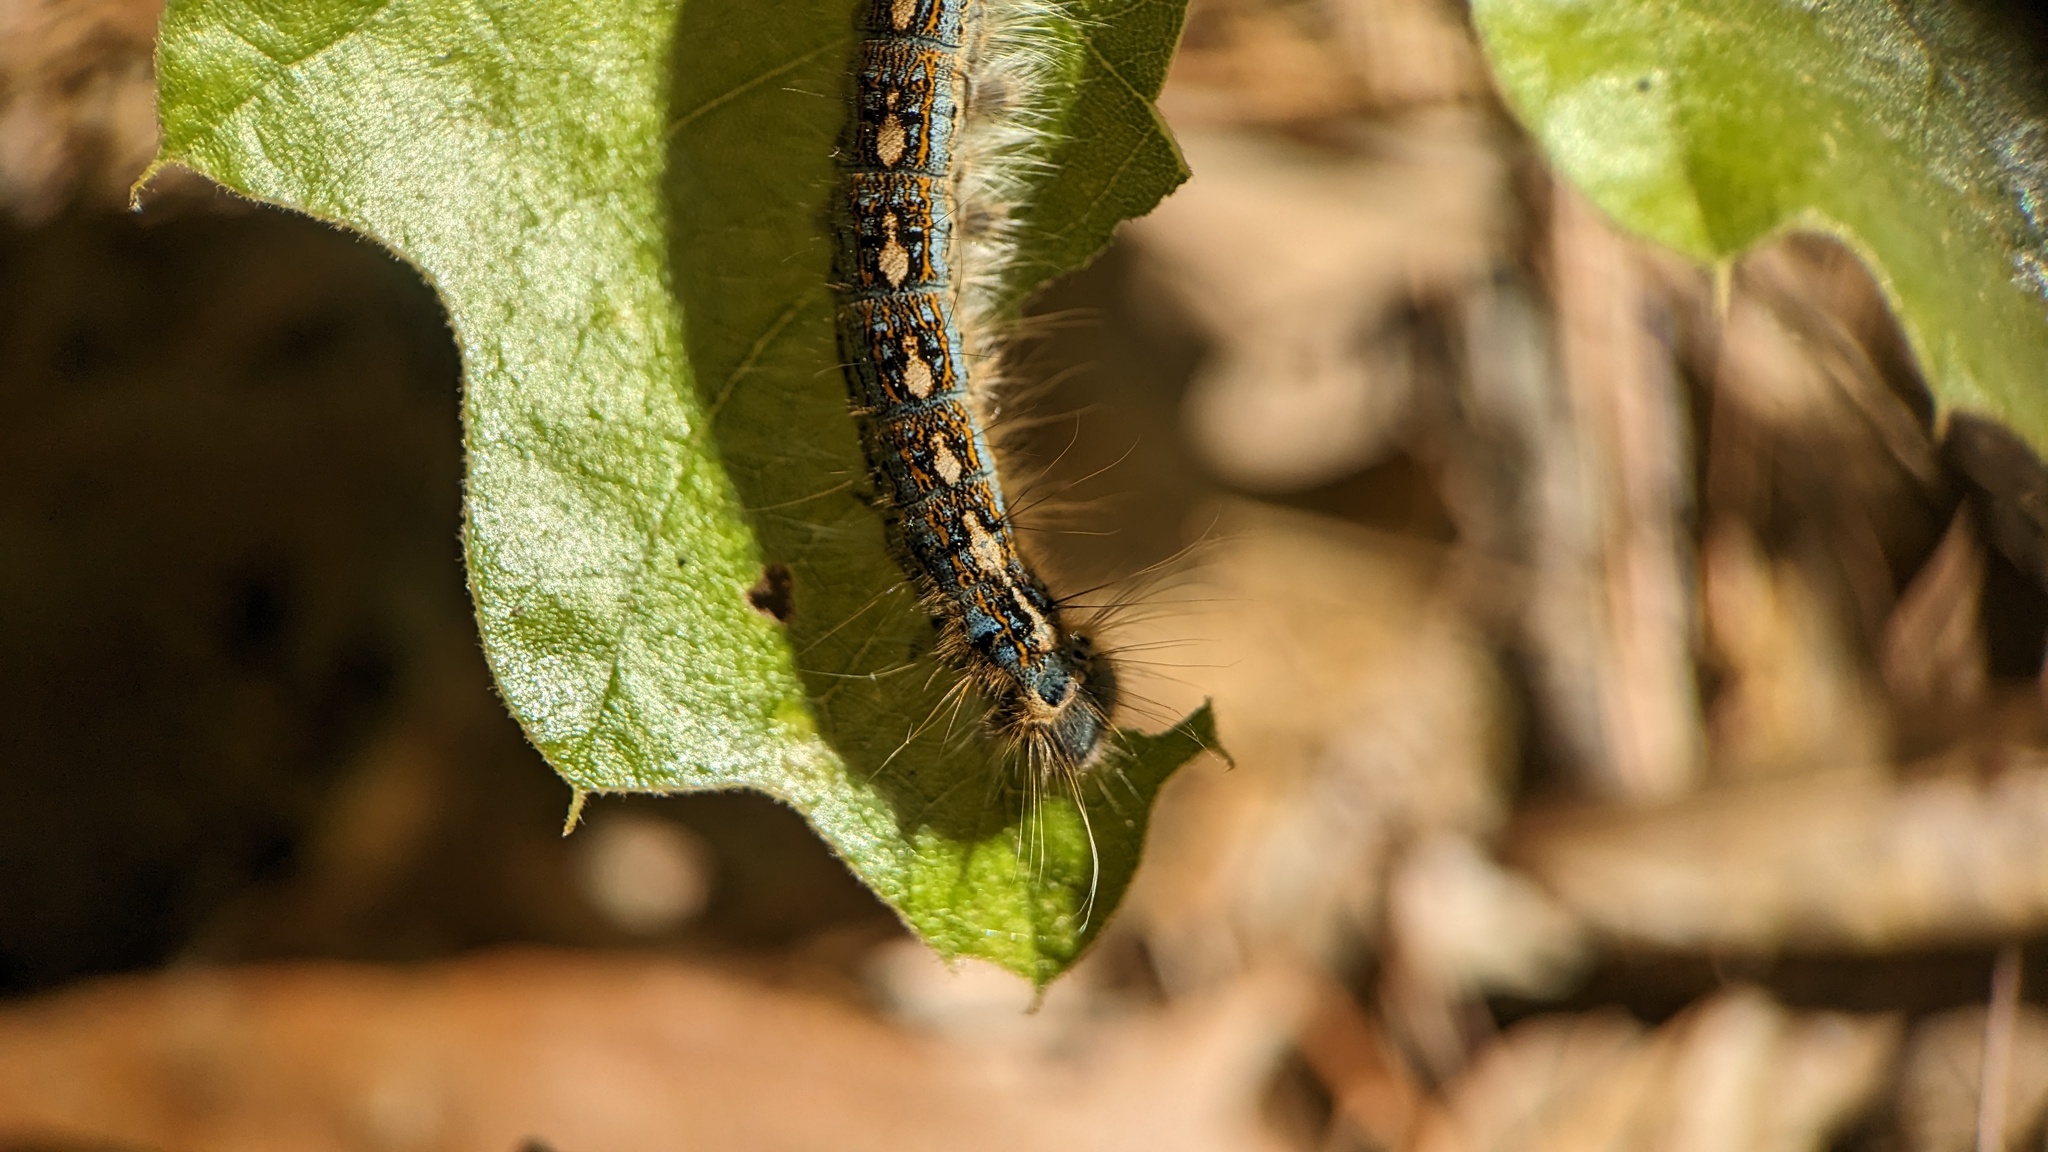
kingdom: Animalia
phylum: Arthropoda
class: Insecta
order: Lepidoptera
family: Lasiocampidae
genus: Malacosoma
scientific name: Malacosoma disstria
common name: Forest tent caterpillar
